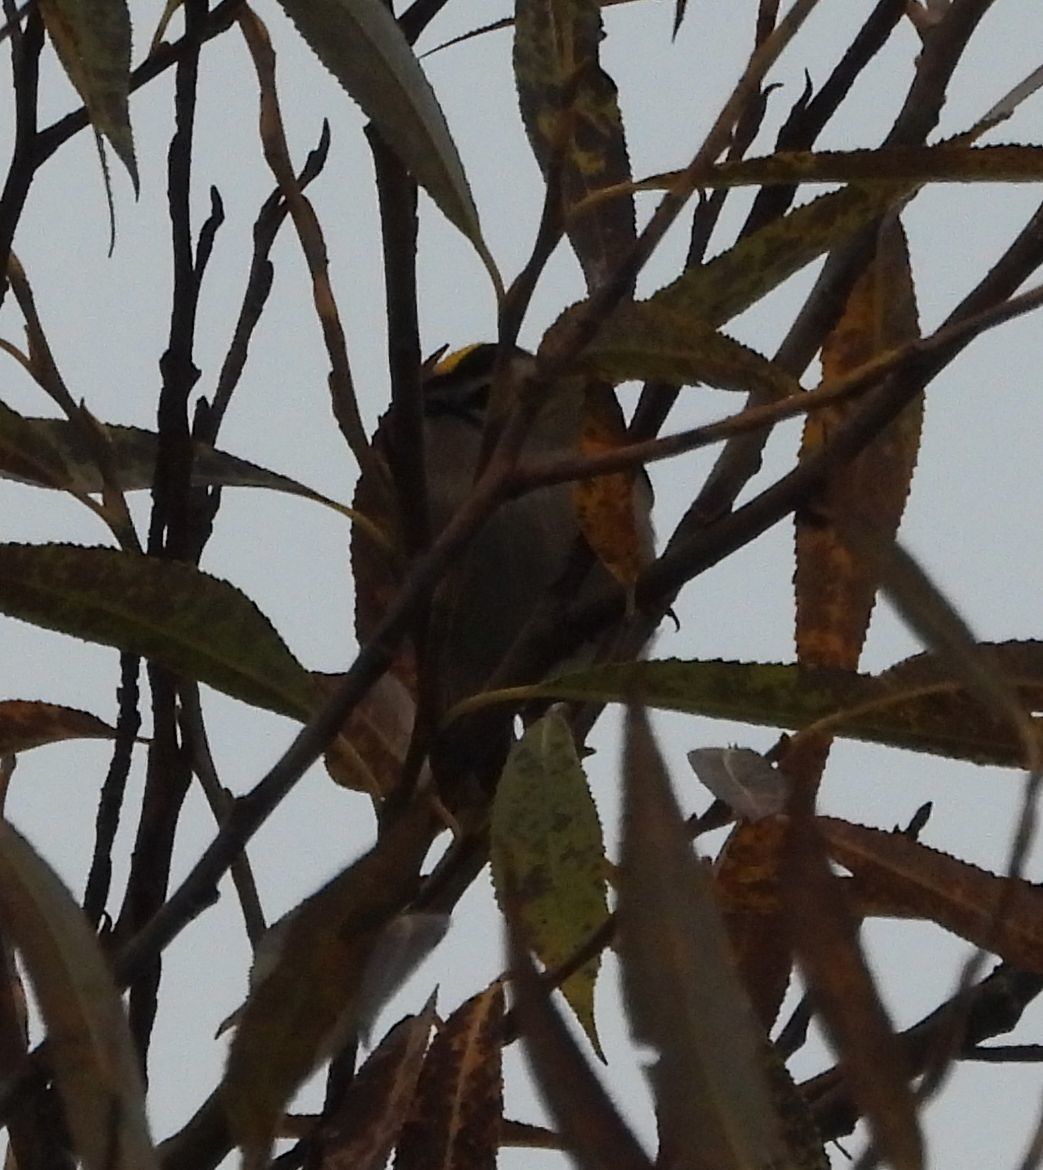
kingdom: Animalia
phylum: Chordata
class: Aves
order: Passeriformes
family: Regulidae
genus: Regulus
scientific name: Regulus satrapa
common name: Golden-crowned kinglet
